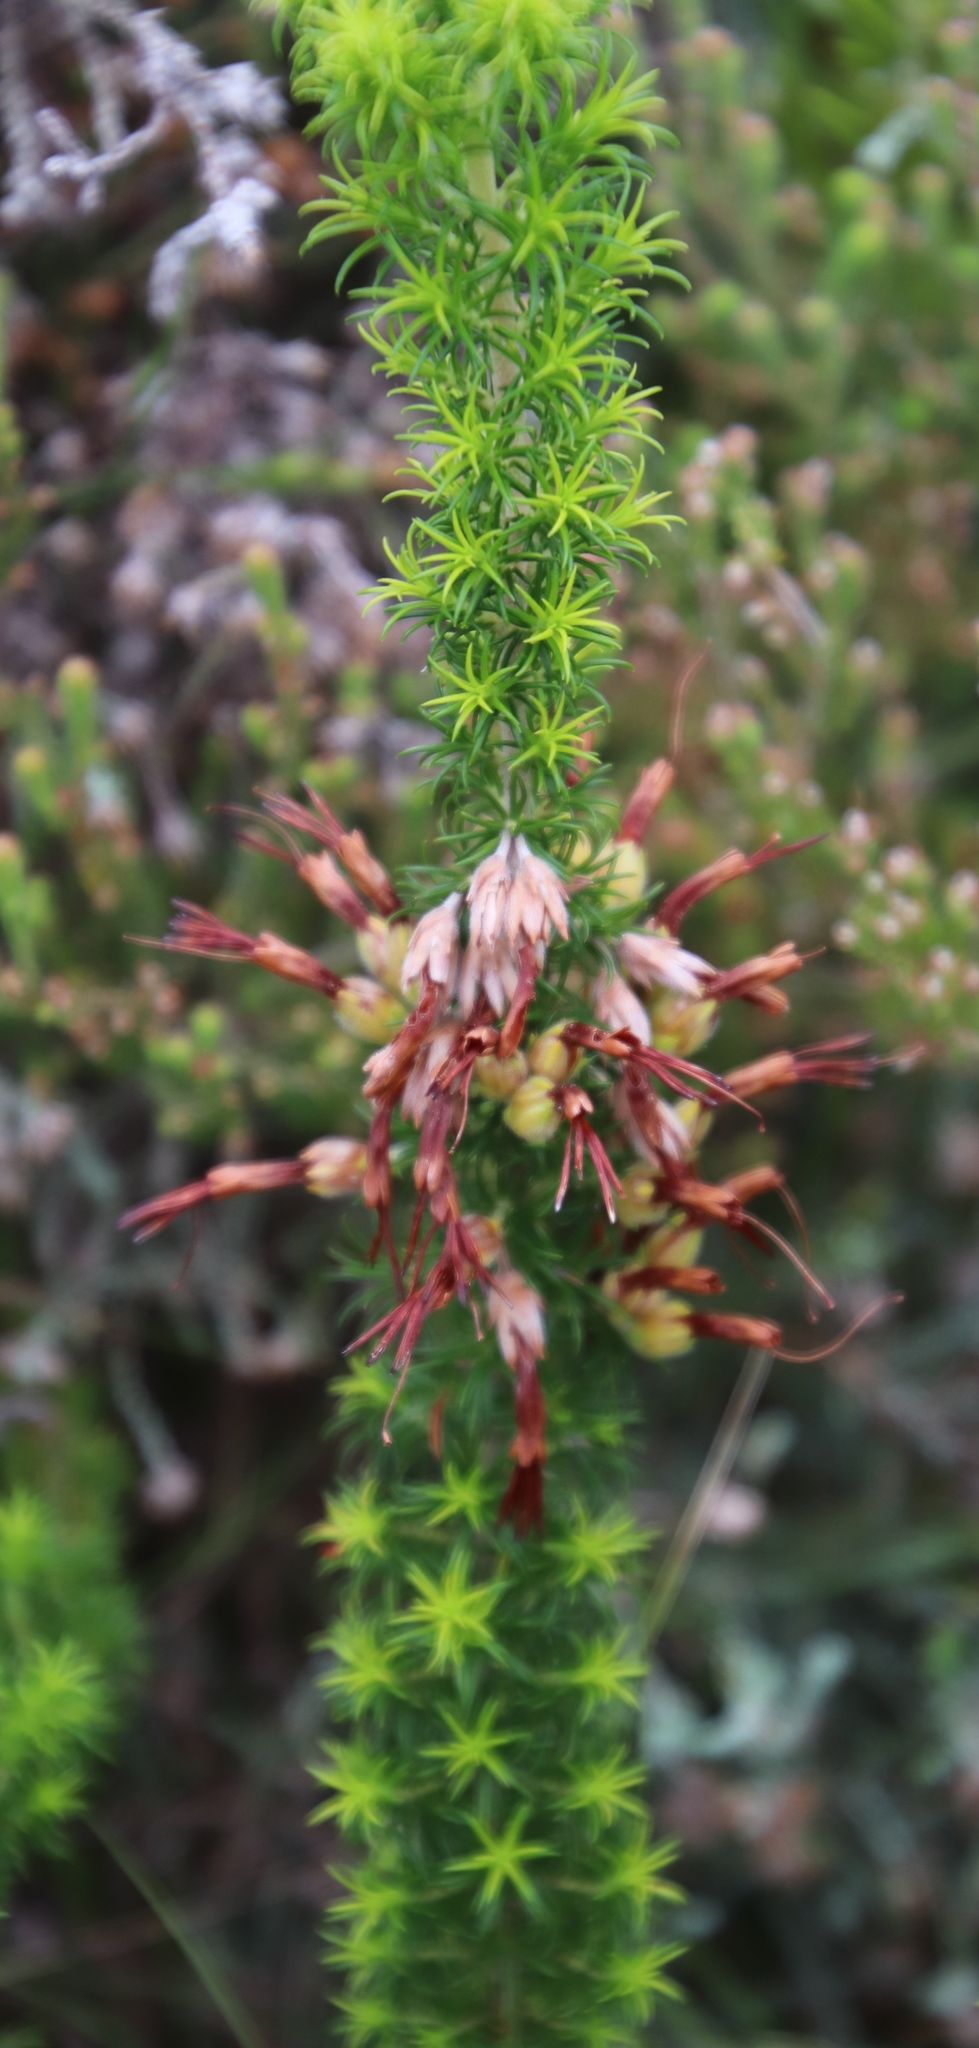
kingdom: Plantae
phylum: Tracheophyta
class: Magnoliopsida
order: Ericales
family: Ericaceae
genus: Erica
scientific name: Erica coccinea
